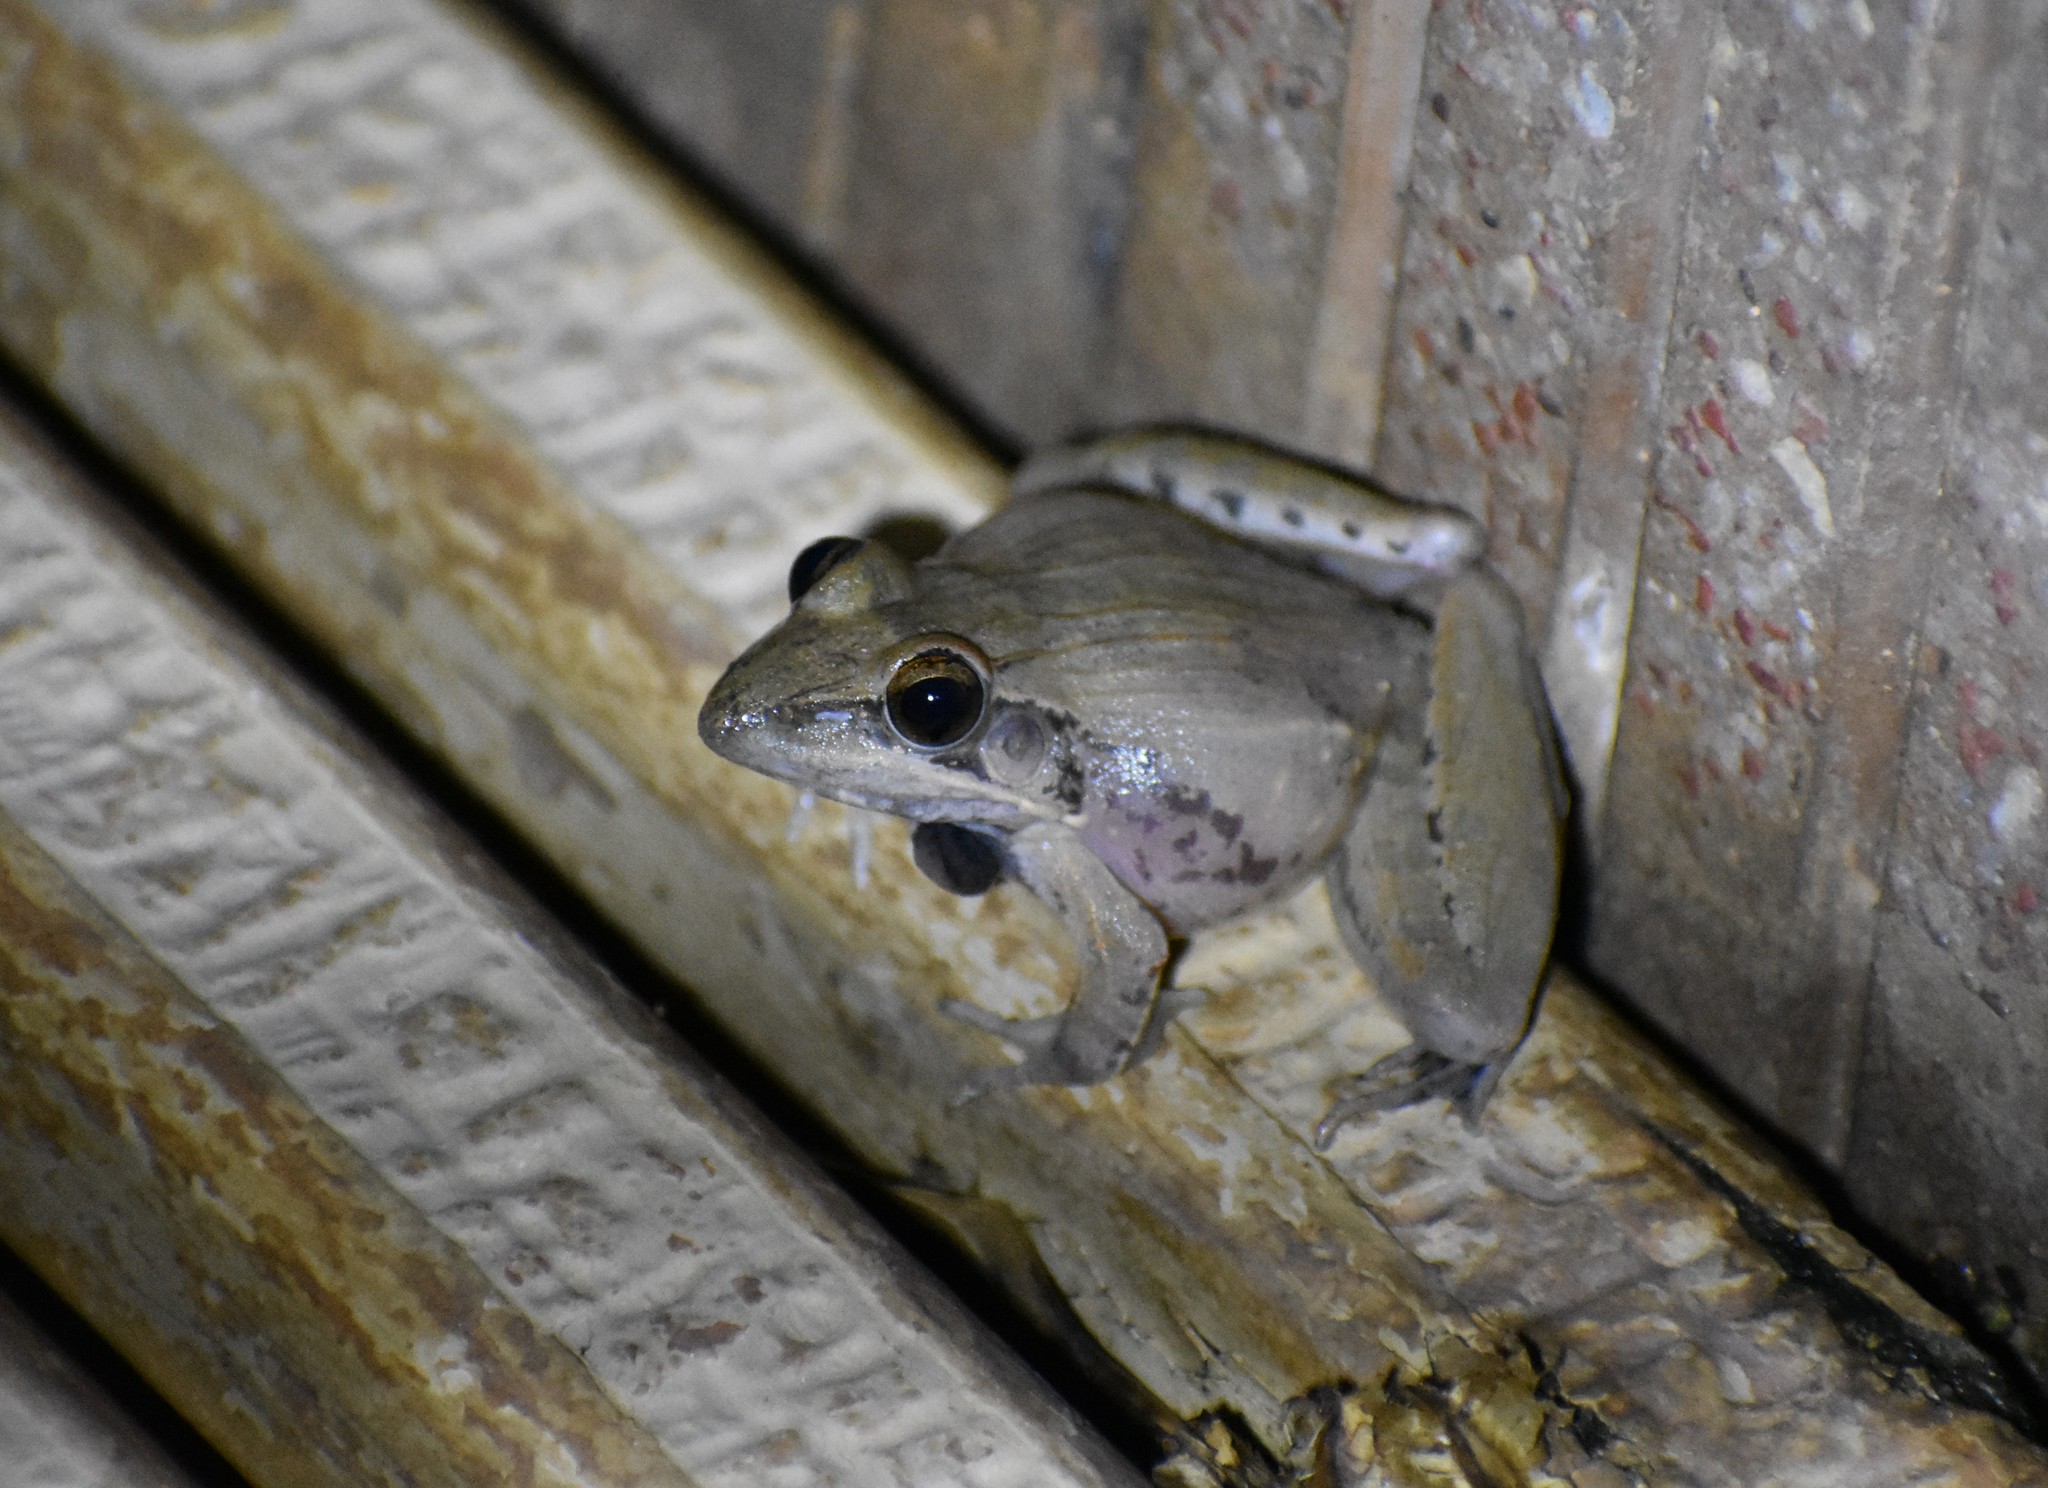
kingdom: Animalia
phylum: Chordata
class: Amphibia
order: Anura
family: Ptychadenidae
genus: Ptychadena
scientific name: Ptychadena anchietae
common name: Anchieta's ridged frog
